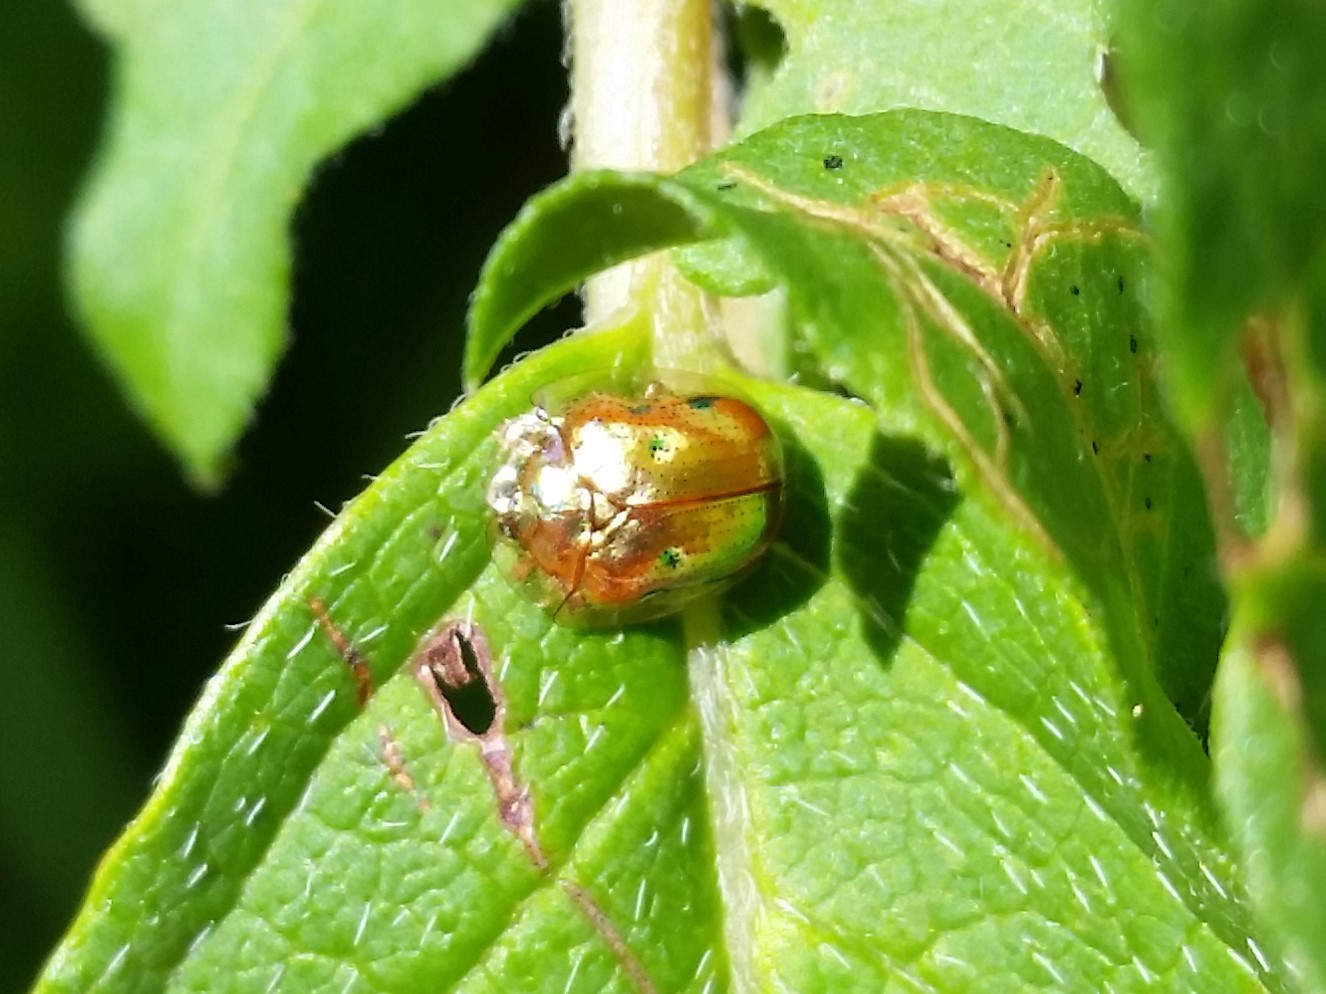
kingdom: Animalia
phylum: Arthropoda
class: Insecta
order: Coleoptera
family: Chrysomelidae
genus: Charidotella
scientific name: Charidotella sexpunctata
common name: Golden tortoise beetle
